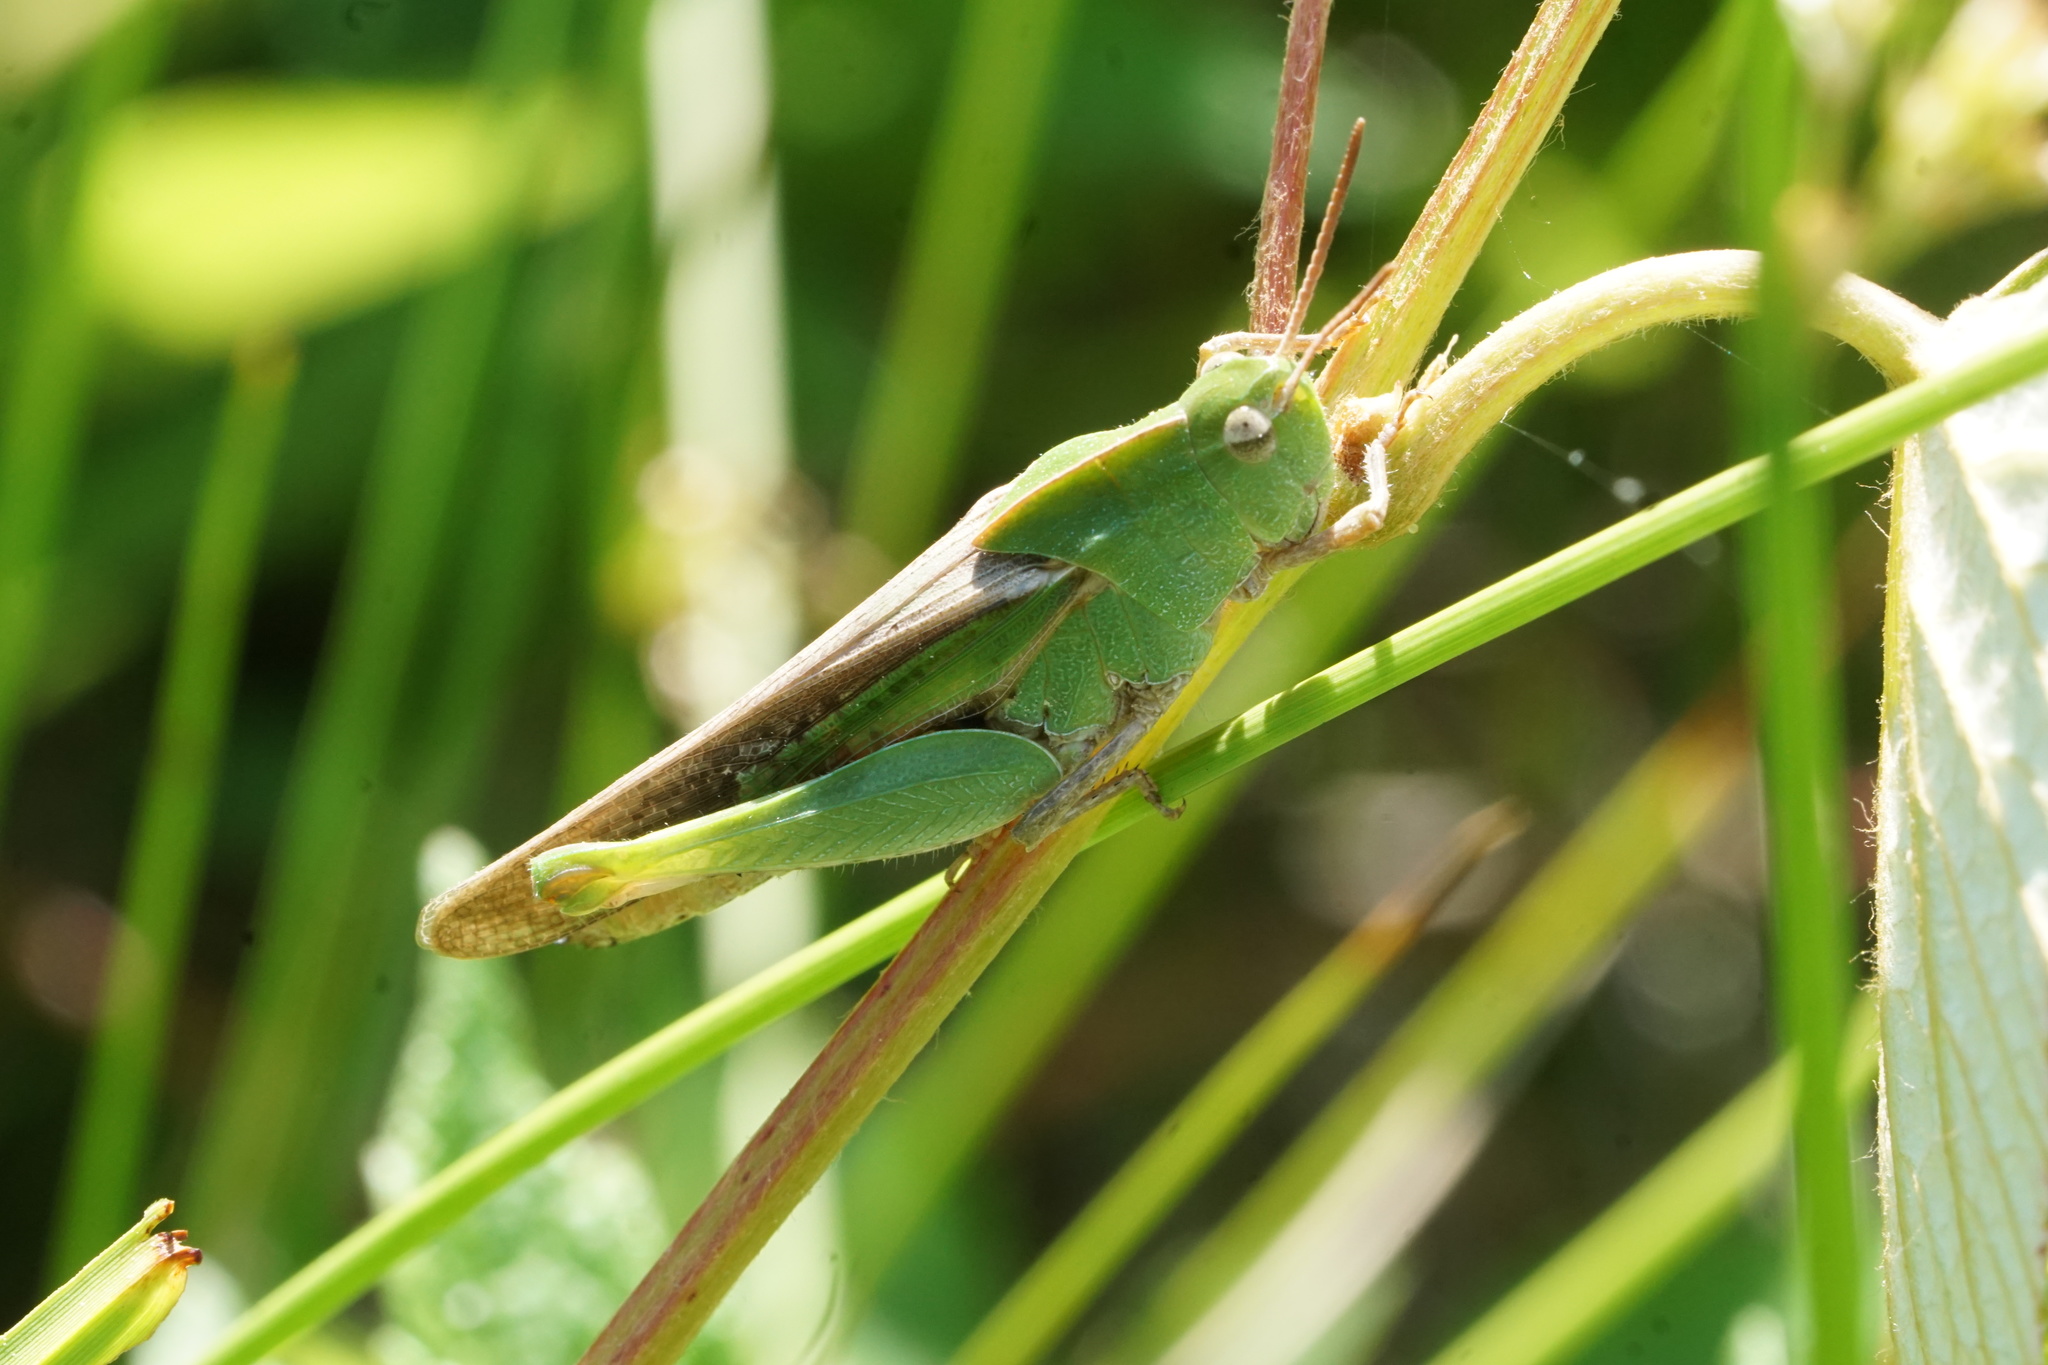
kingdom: Animalia
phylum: Arthropoda
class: Insecta
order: Orthoptera
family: Acrididae
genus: Chortophaga
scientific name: Chortophaga viridifasciata
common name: Green-striped grasshopper
